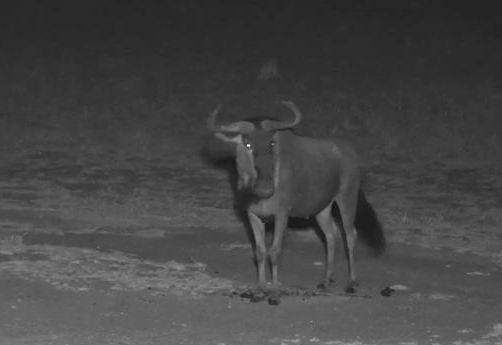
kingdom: Animalia
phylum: Chordata
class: Mammalia
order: Artiodactyla
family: Bovidae
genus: Connochaetes
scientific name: Connochaetes taurinus
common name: Blue wildebeest
